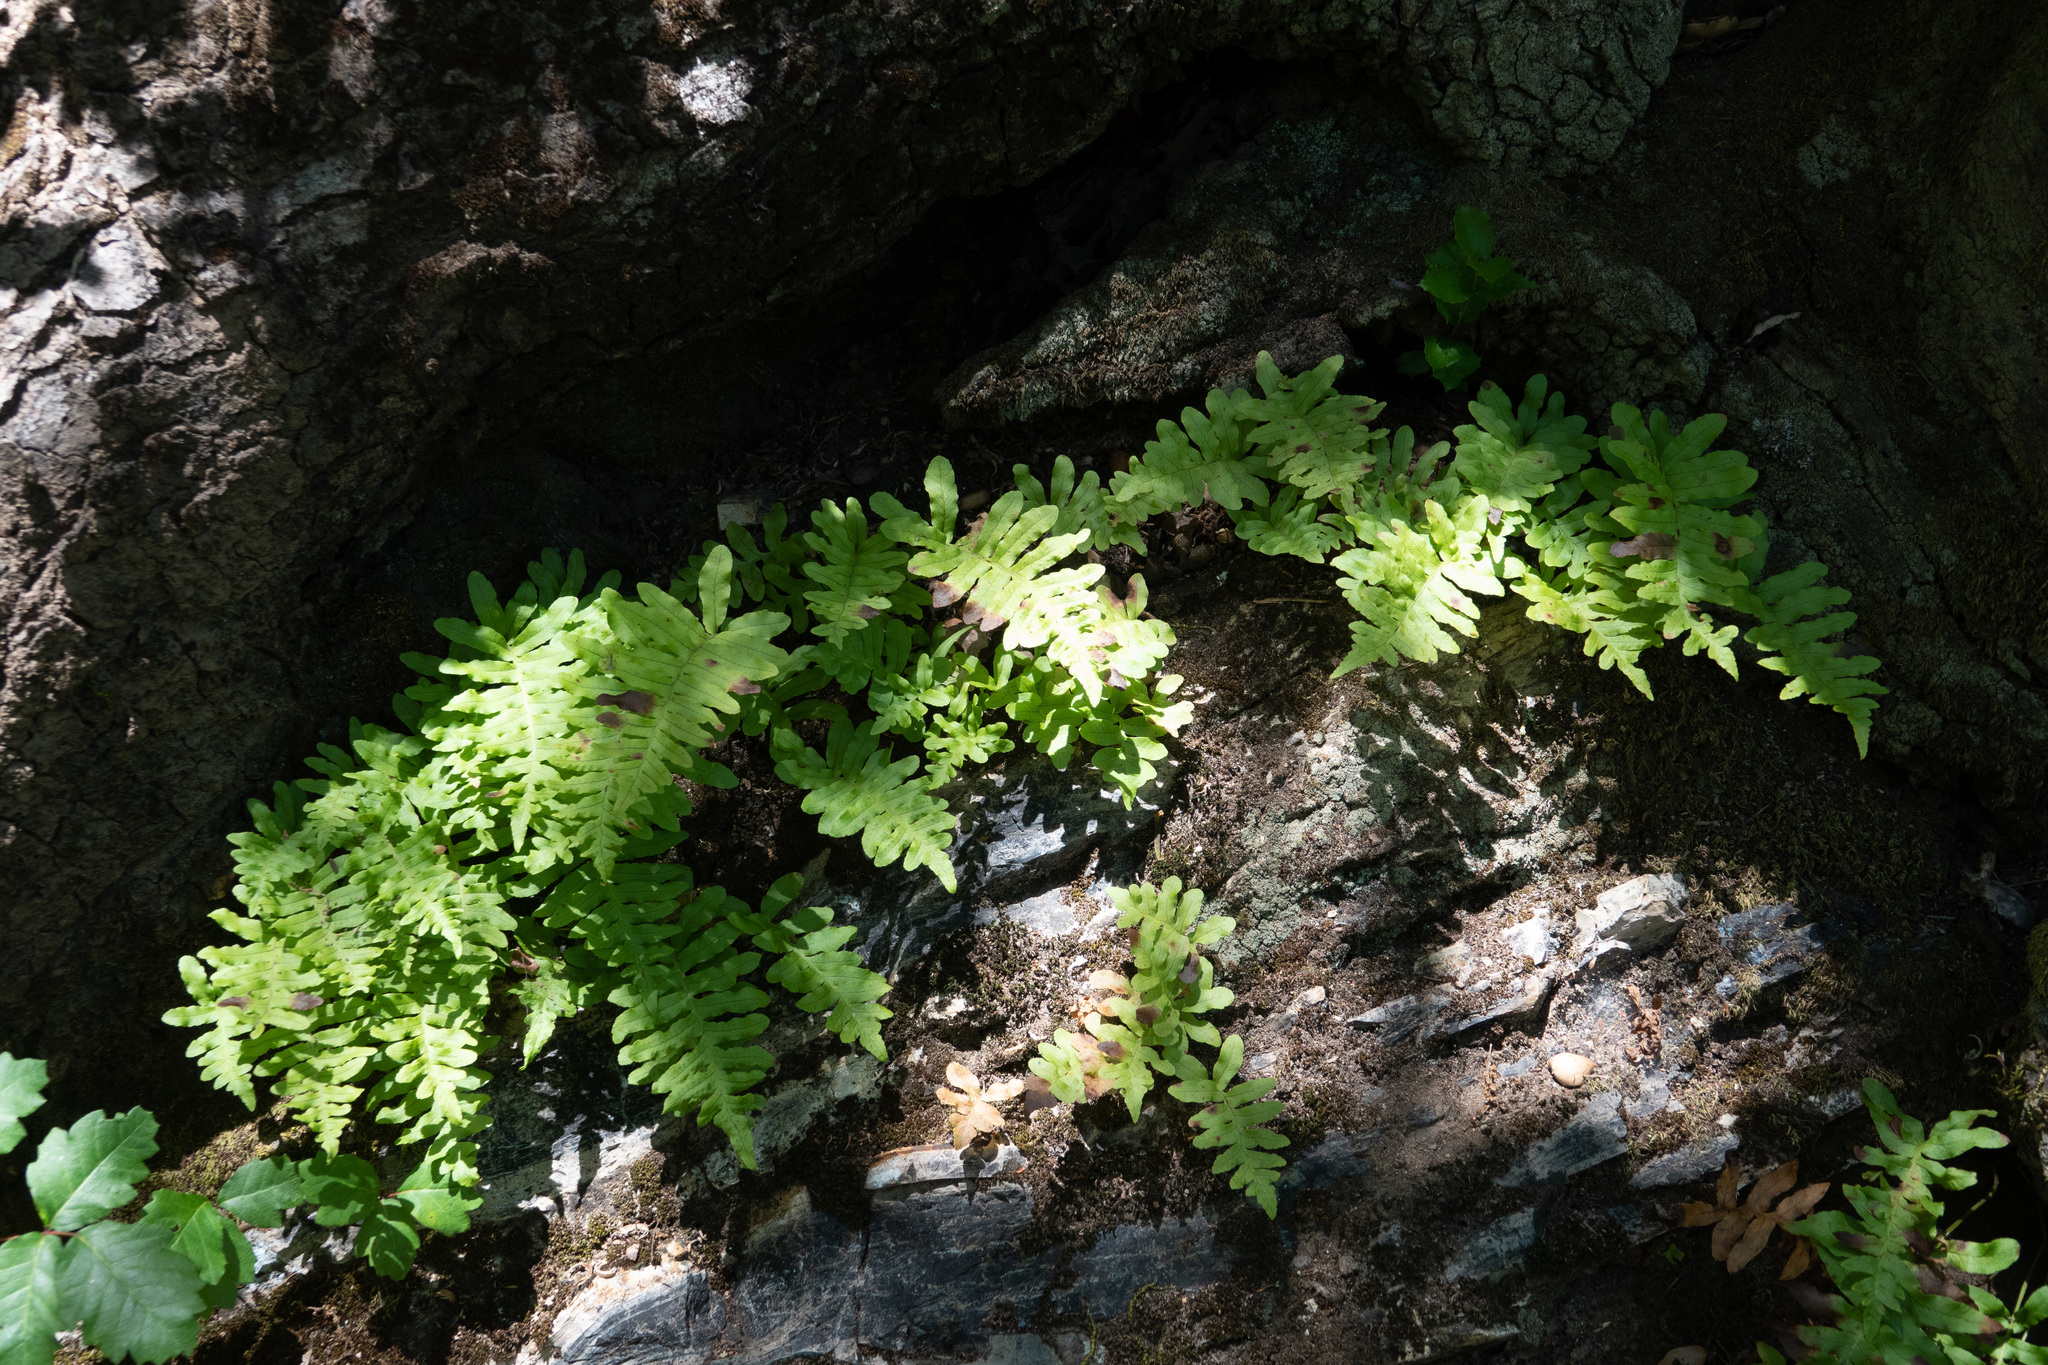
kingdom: Plantae
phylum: Tracheophyta
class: Polypodiopsida
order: Polypodiales
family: Polypodiaceae
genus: Polypodium
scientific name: Polypodium californicum
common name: California polypody
